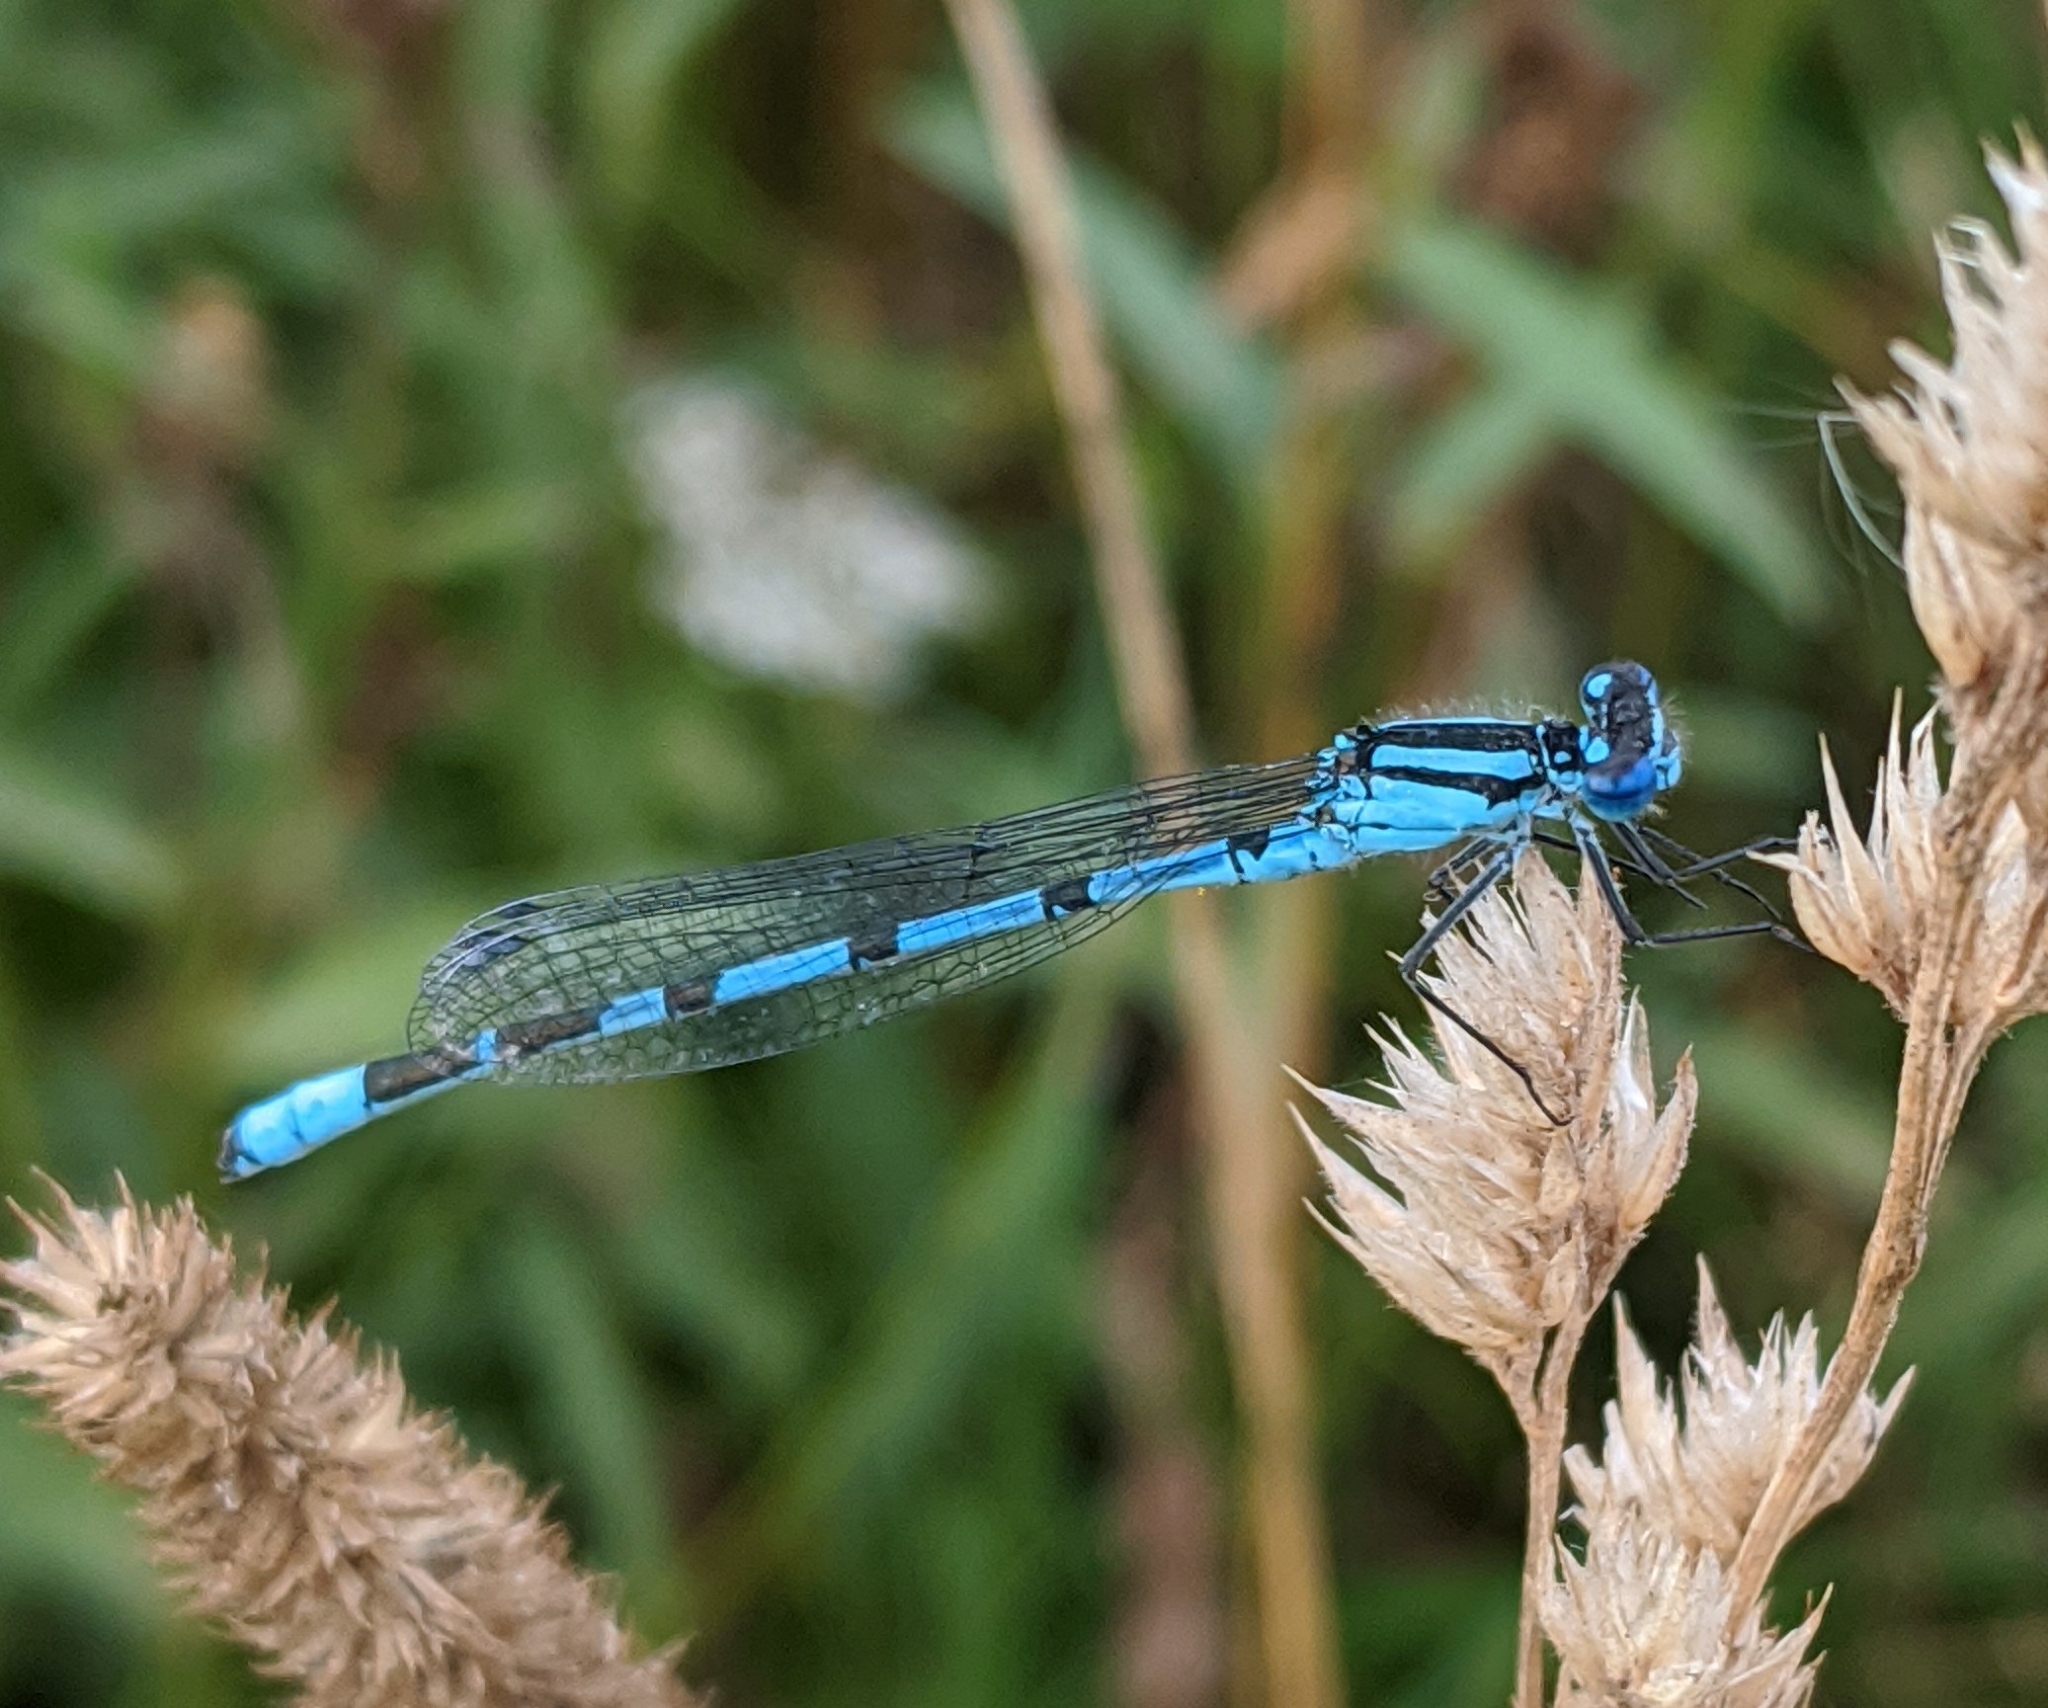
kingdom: Animalia
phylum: Arthropoda
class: Insecta
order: Odonata
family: Coenagrionidae
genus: Enallagma
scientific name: Enallagma cyathigerum
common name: Common blue damselfly
